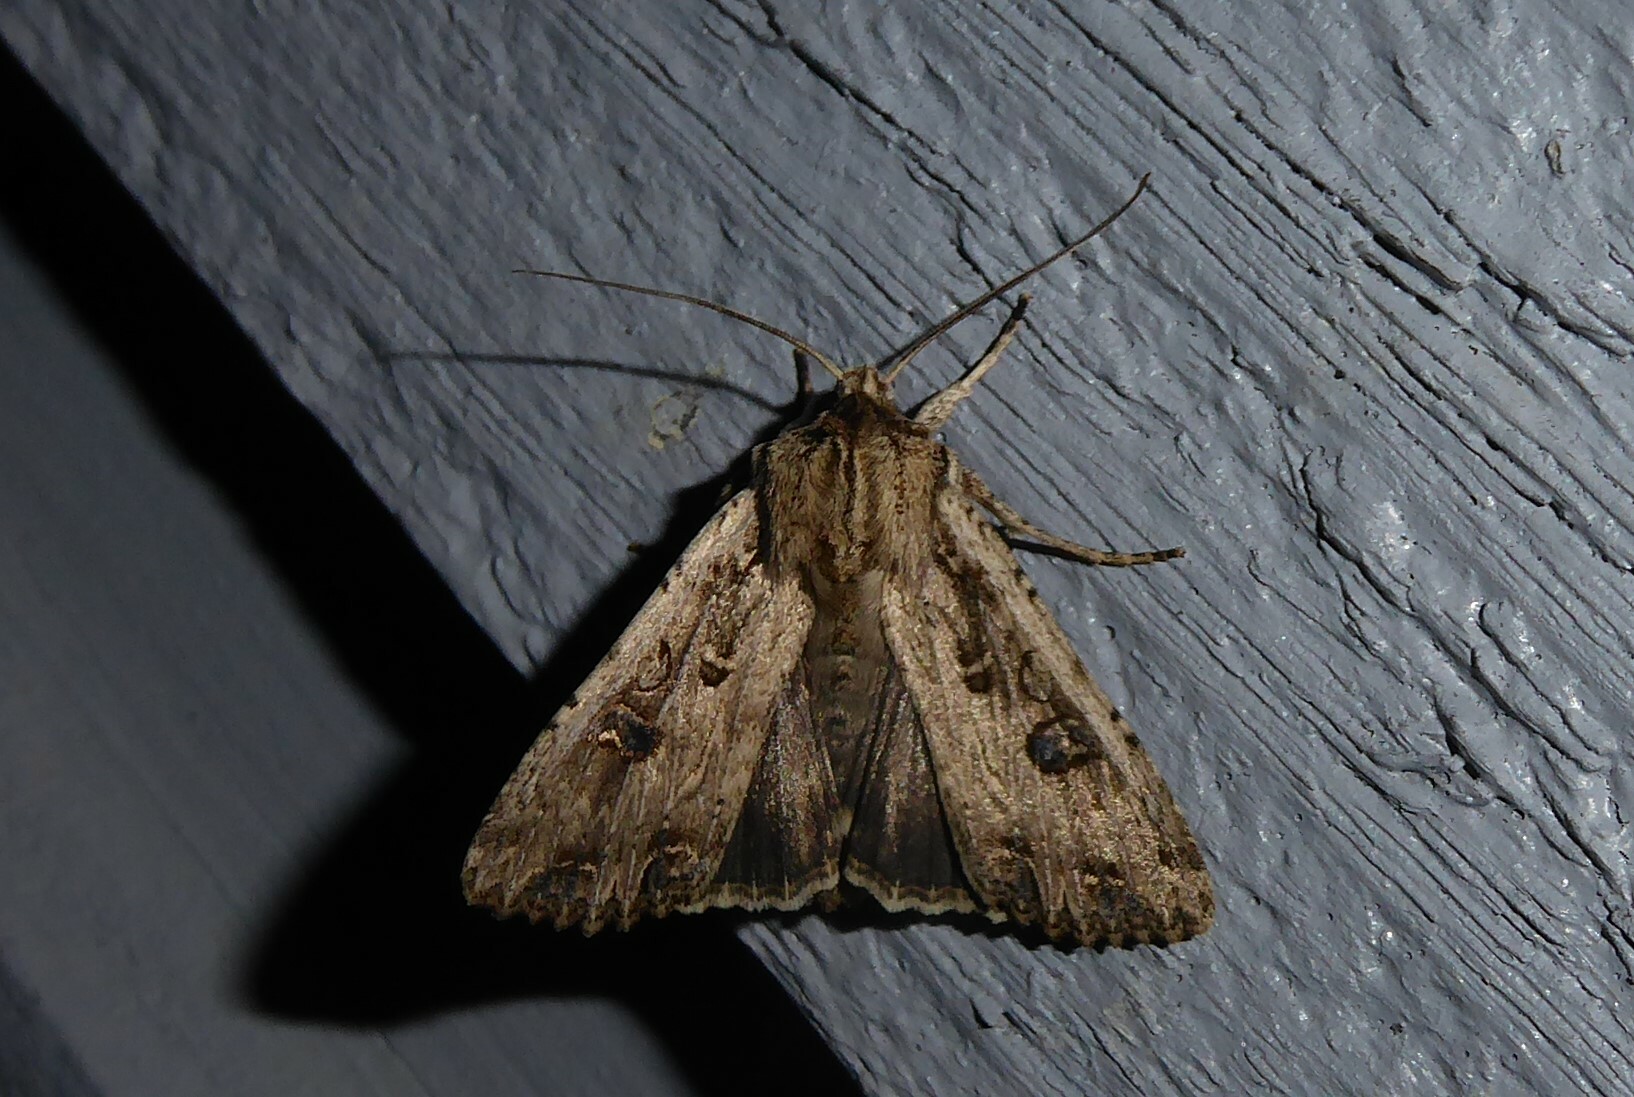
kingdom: Animalia
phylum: Arthropoda
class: Insecta
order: Lepidoptera
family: Noctuidae
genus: Ichneutica
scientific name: Ichneutica lignana
